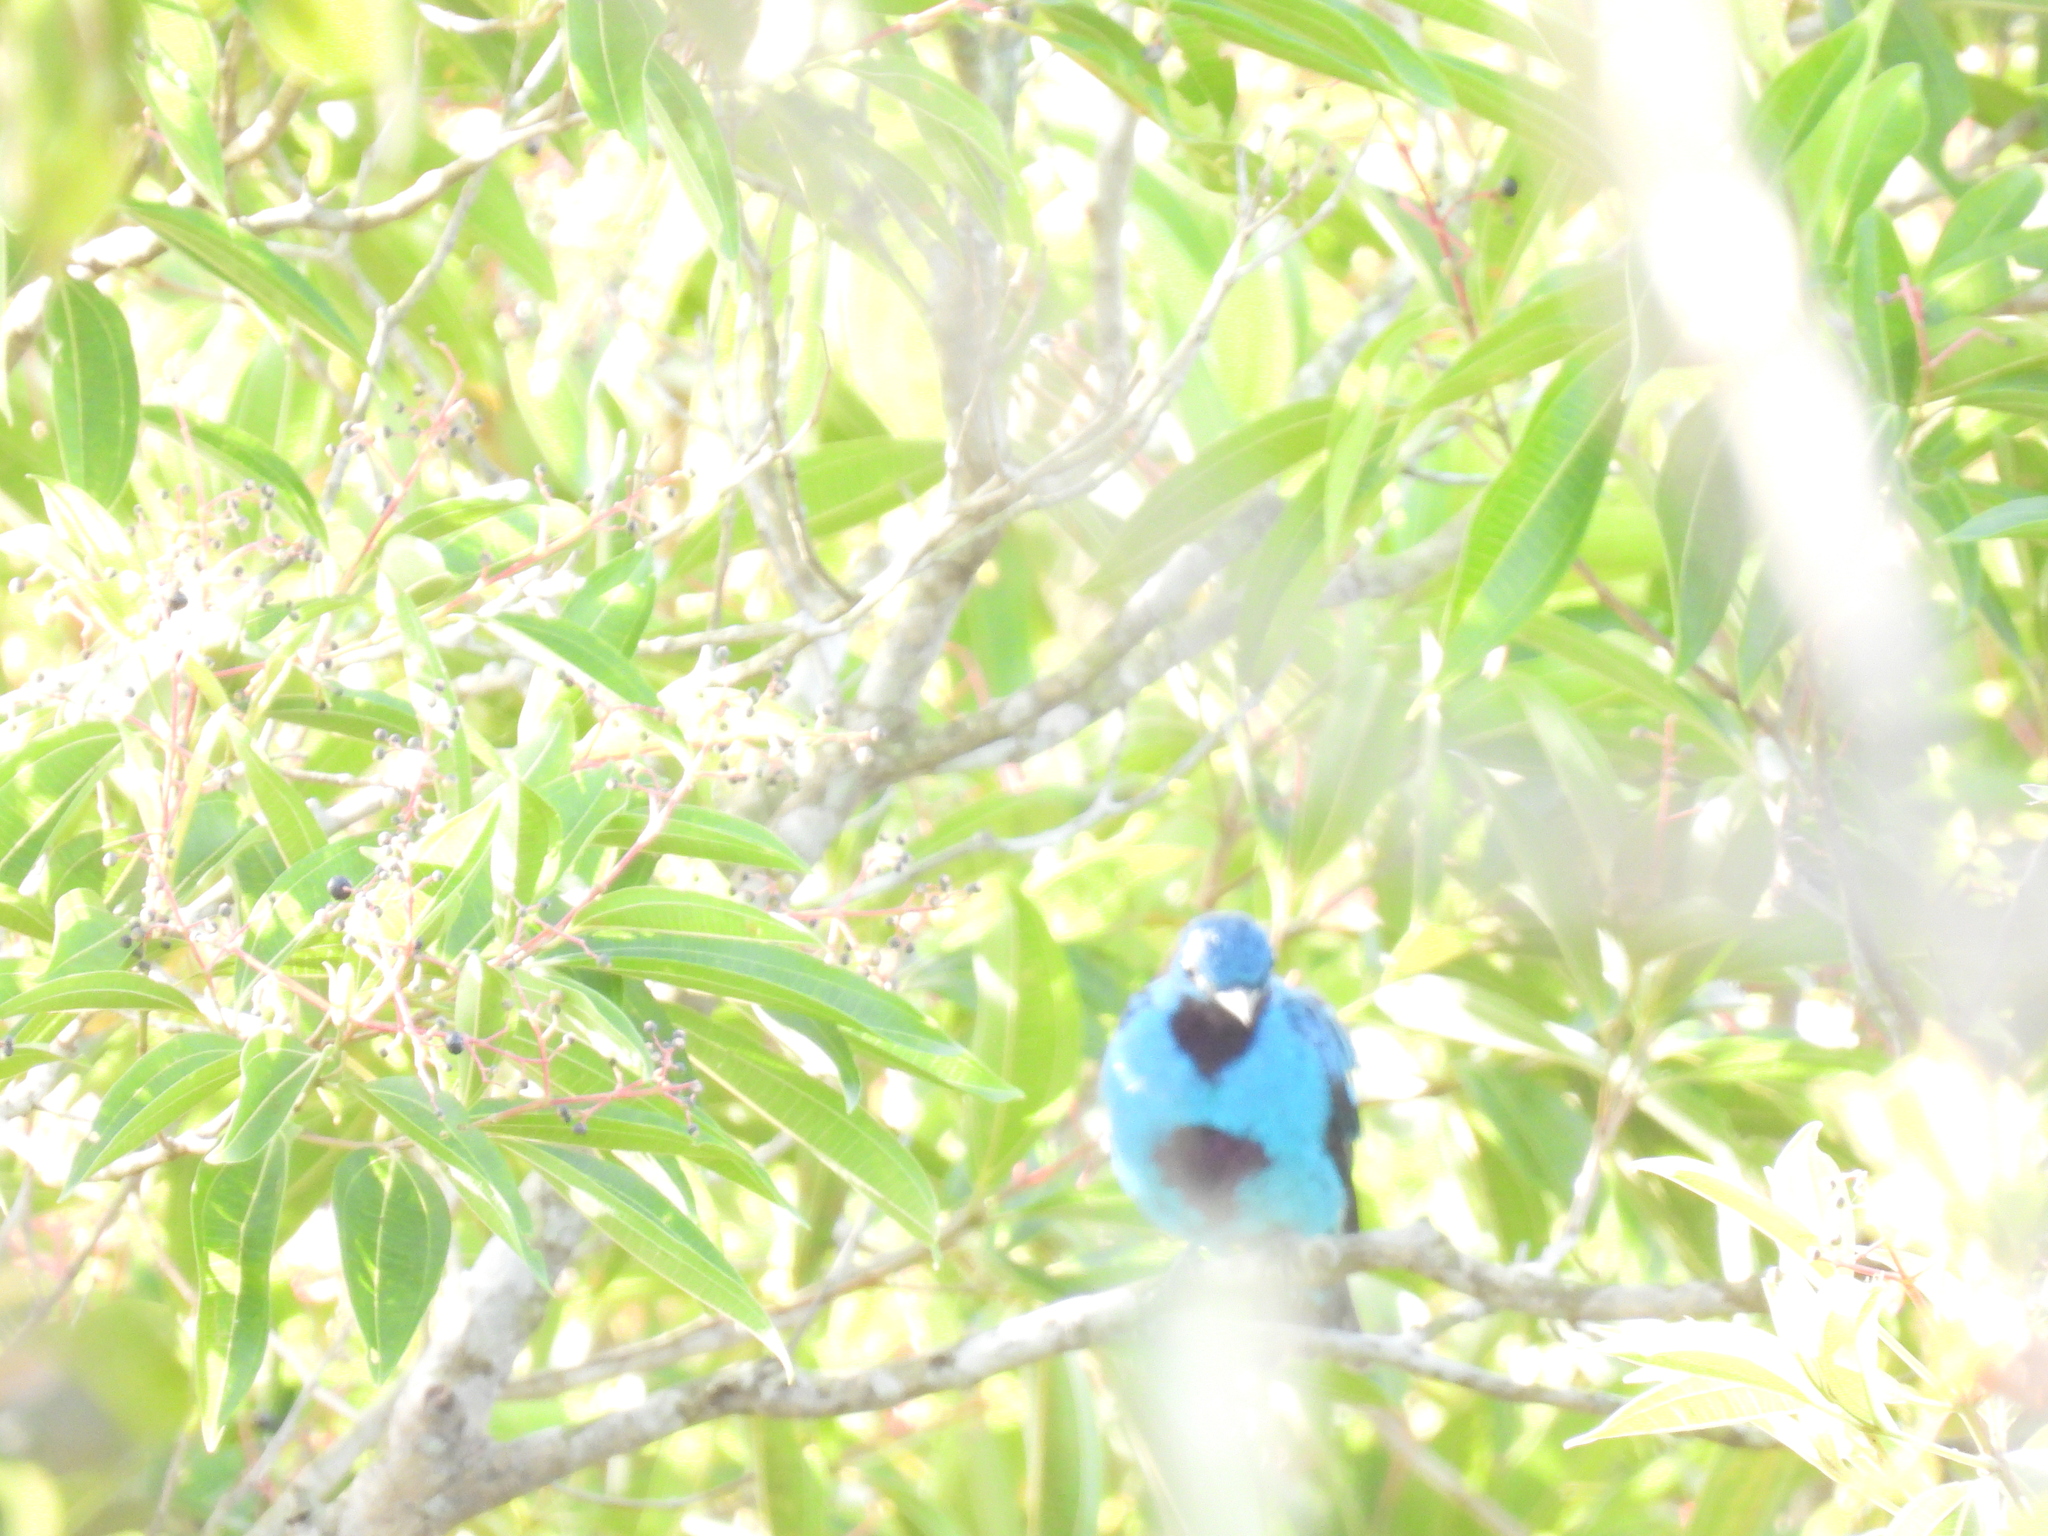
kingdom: Animalia
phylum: Chordata
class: Aves
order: Passeriformes
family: Cotingidae
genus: Cotinga
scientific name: Cotinga nattererii
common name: Blue cotinga
